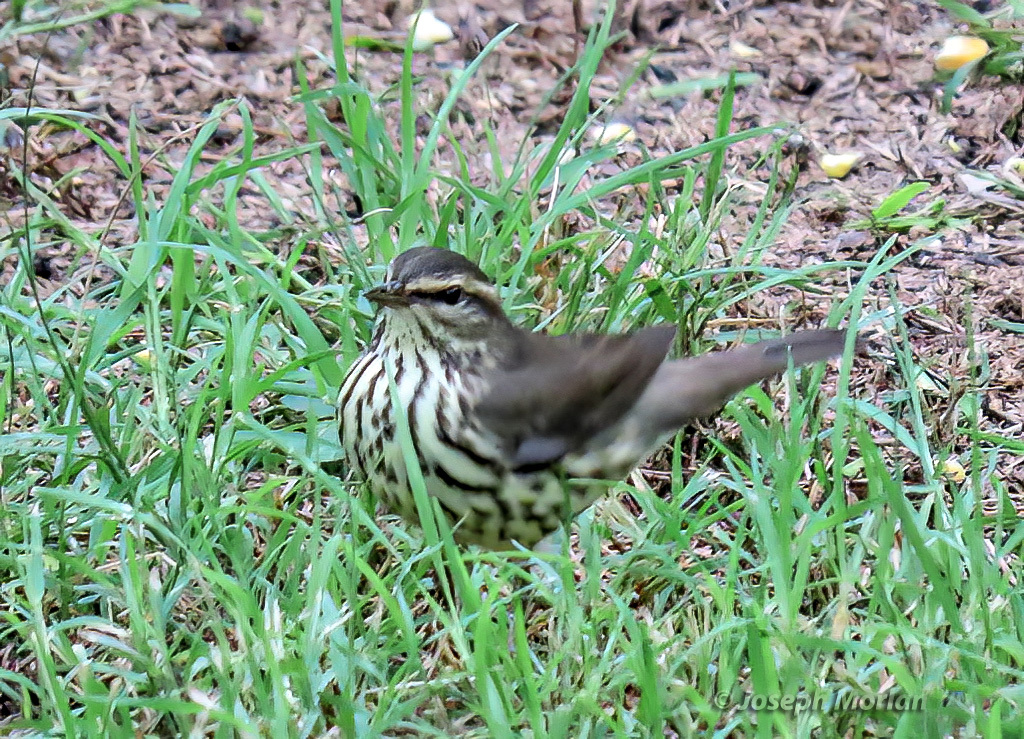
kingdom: Animalia
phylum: Chordata
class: Aves
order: Passeriformes
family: Parulidae
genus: Parkesia
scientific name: Parkesia noveboracensis
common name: Northern waterthrush
